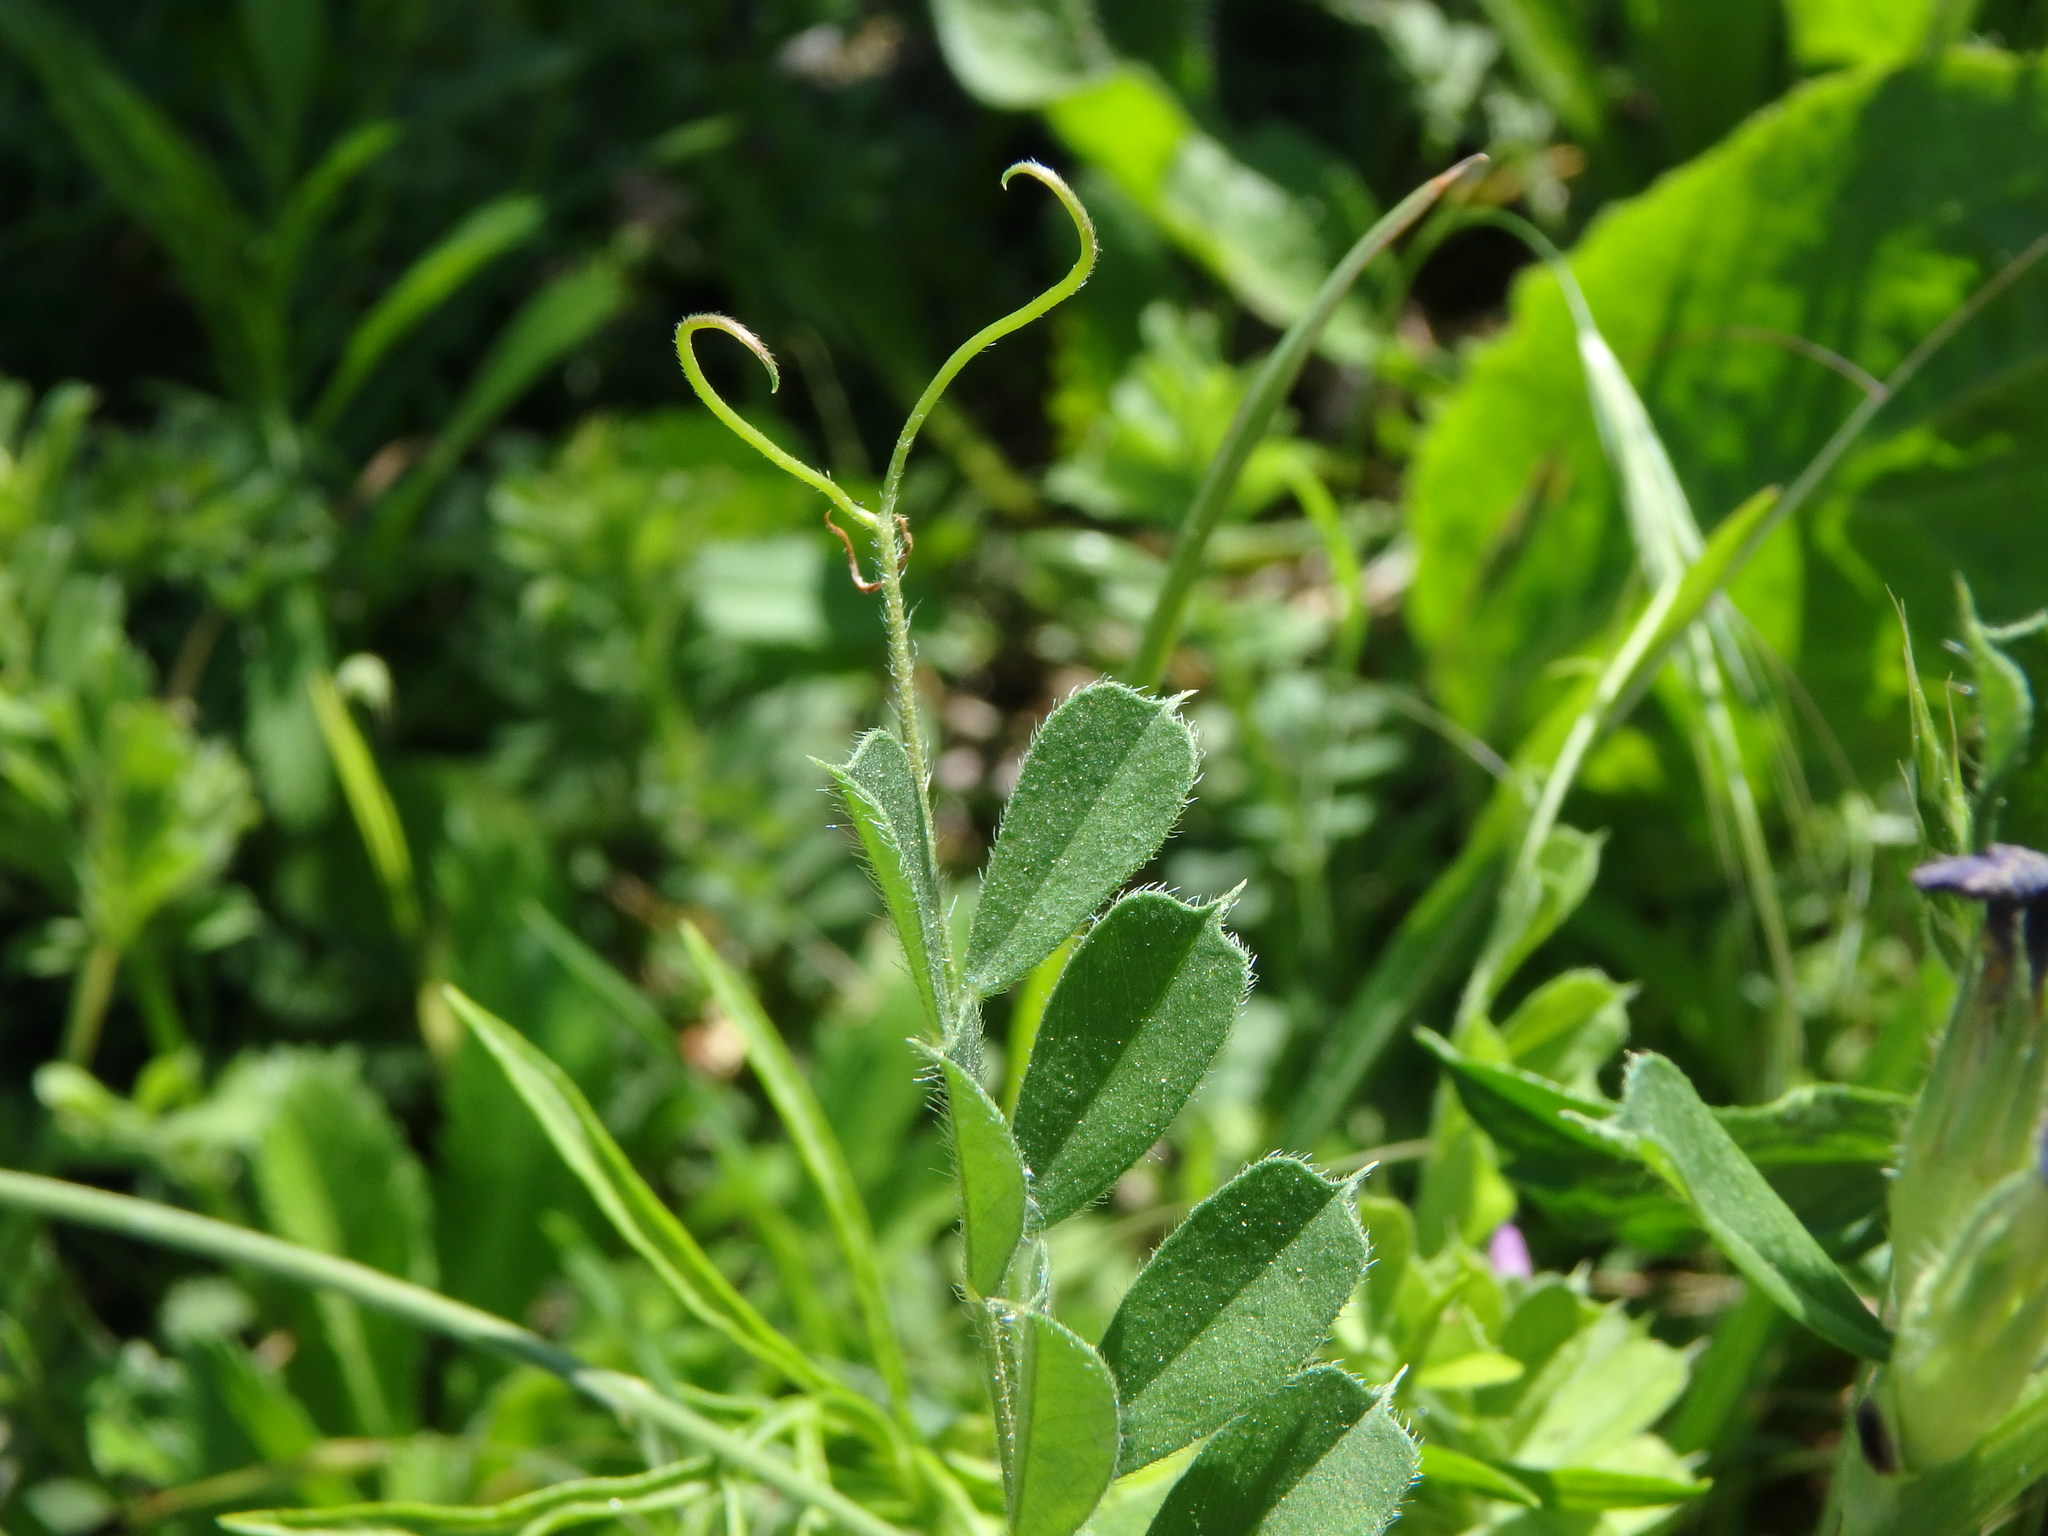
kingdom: Plantae
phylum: Tracheophyta
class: Magnoliopsida
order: Fabales
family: Fabaceae
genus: Vicia
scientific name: Vicia sativa
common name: Garden vetch
